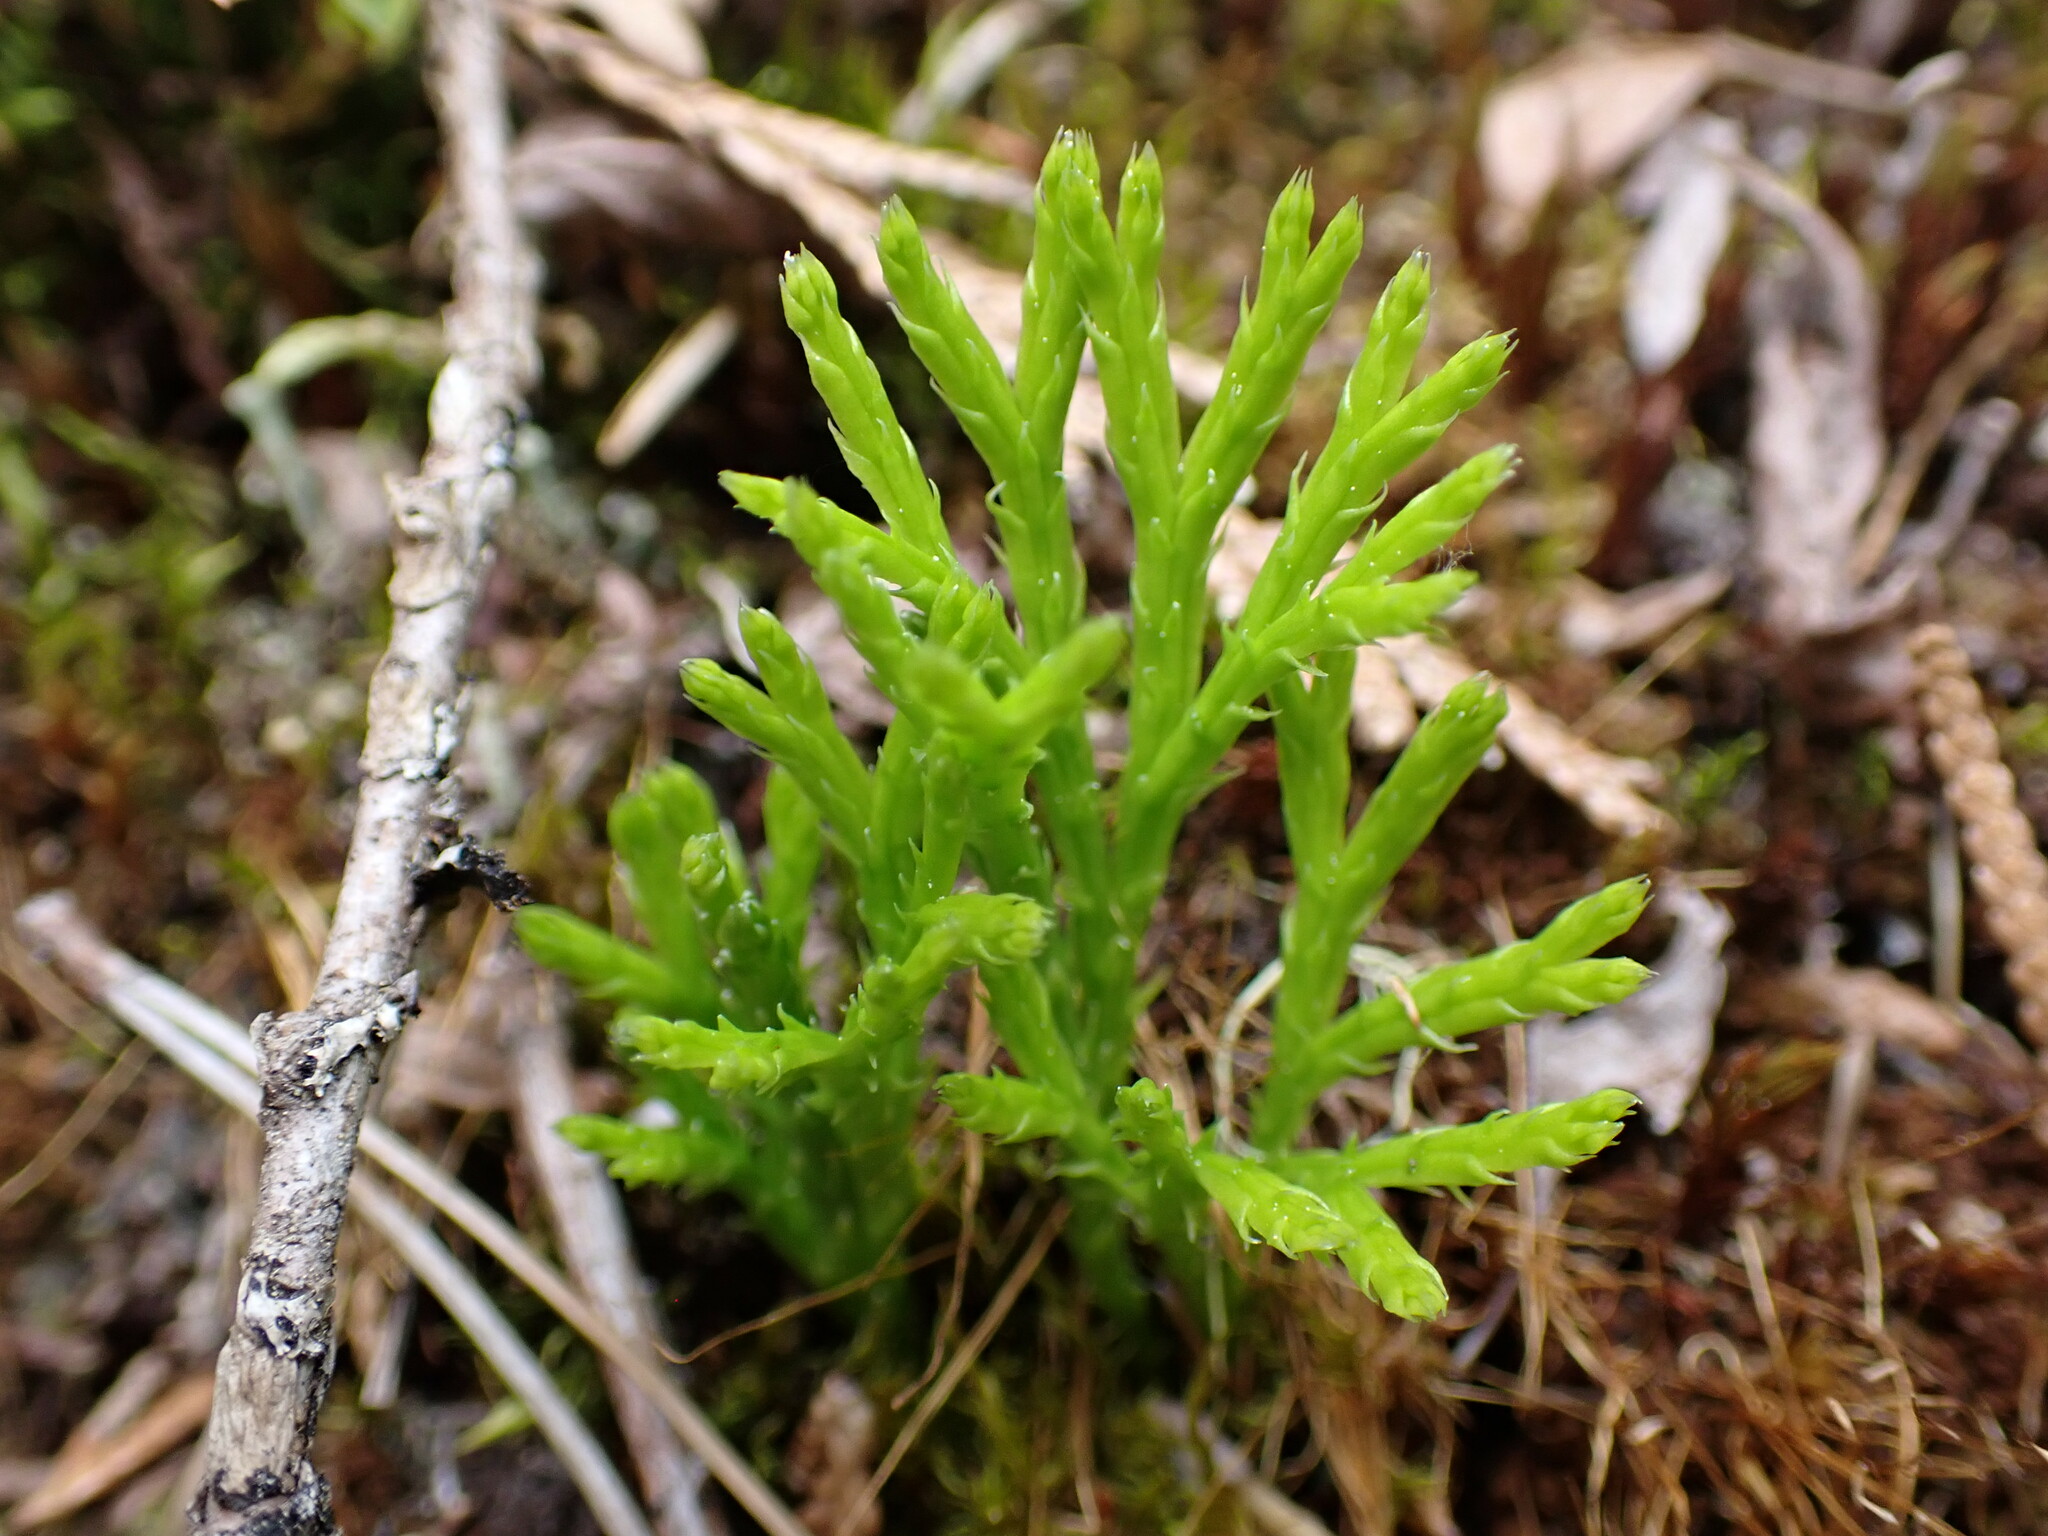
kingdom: Plantae
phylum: Tracheophyta
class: Lycopodiopsida
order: Lycopodiales
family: Lycopodiaceae
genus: Diphasiastrum
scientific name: Diphasiastrum complanatum
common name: Northern running-pine
